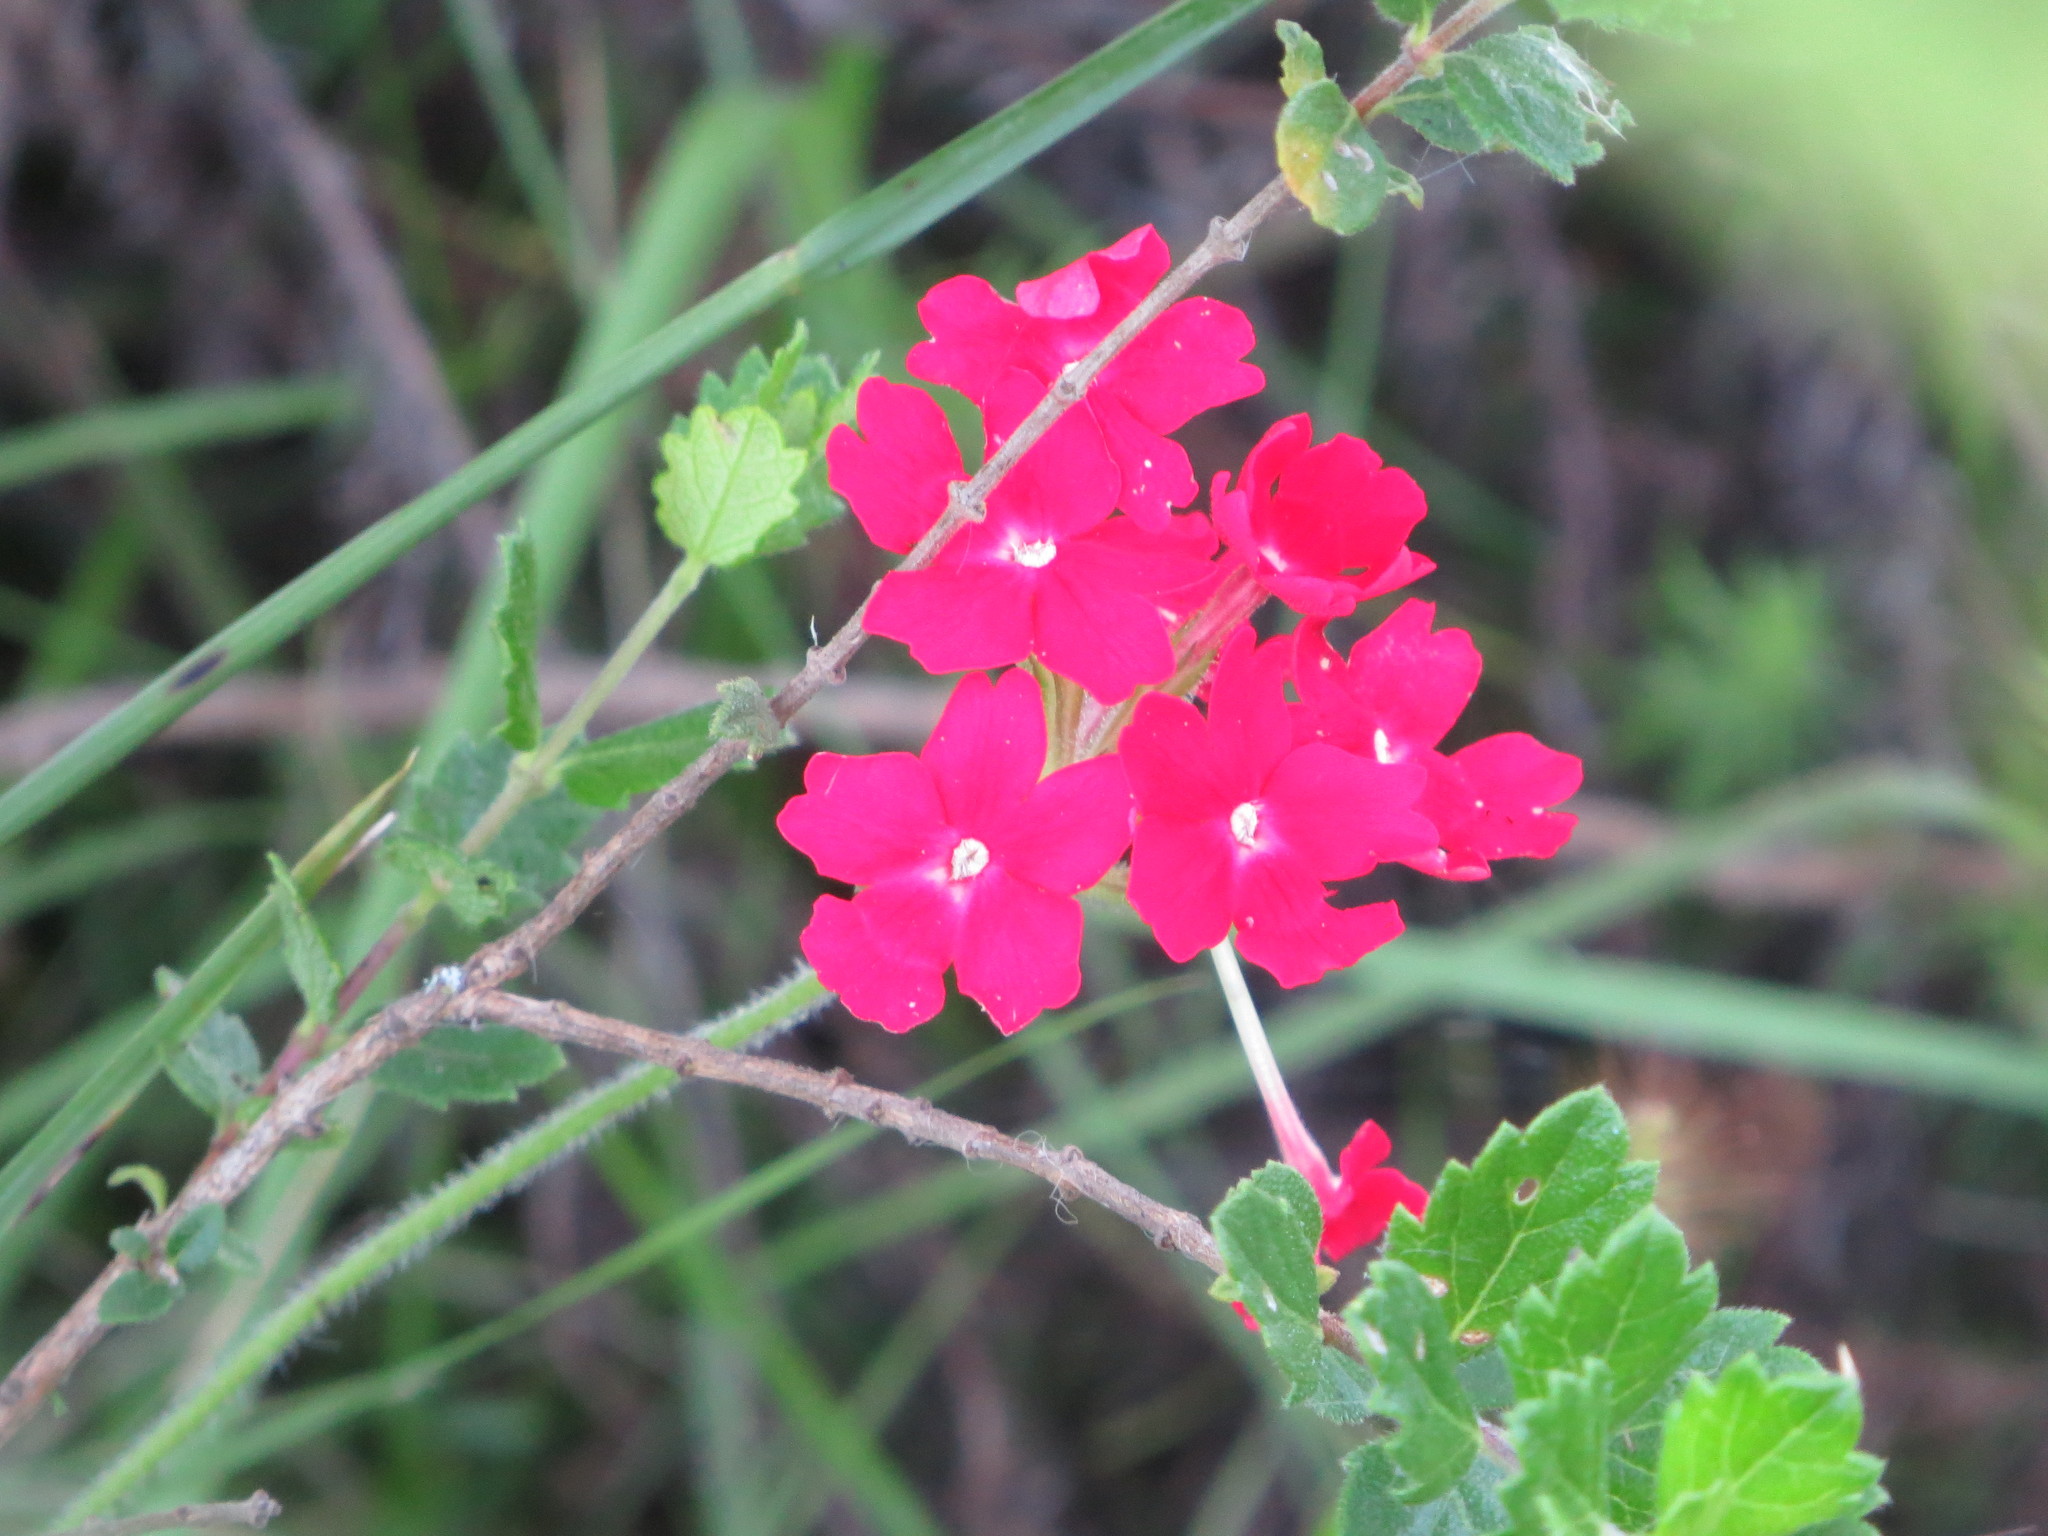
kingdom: Plantae
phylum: Tracheophyta
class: Magnoliopsida
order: Lamiales
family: Verbenaceae
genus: Verbena
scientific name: Verbena peruviana
